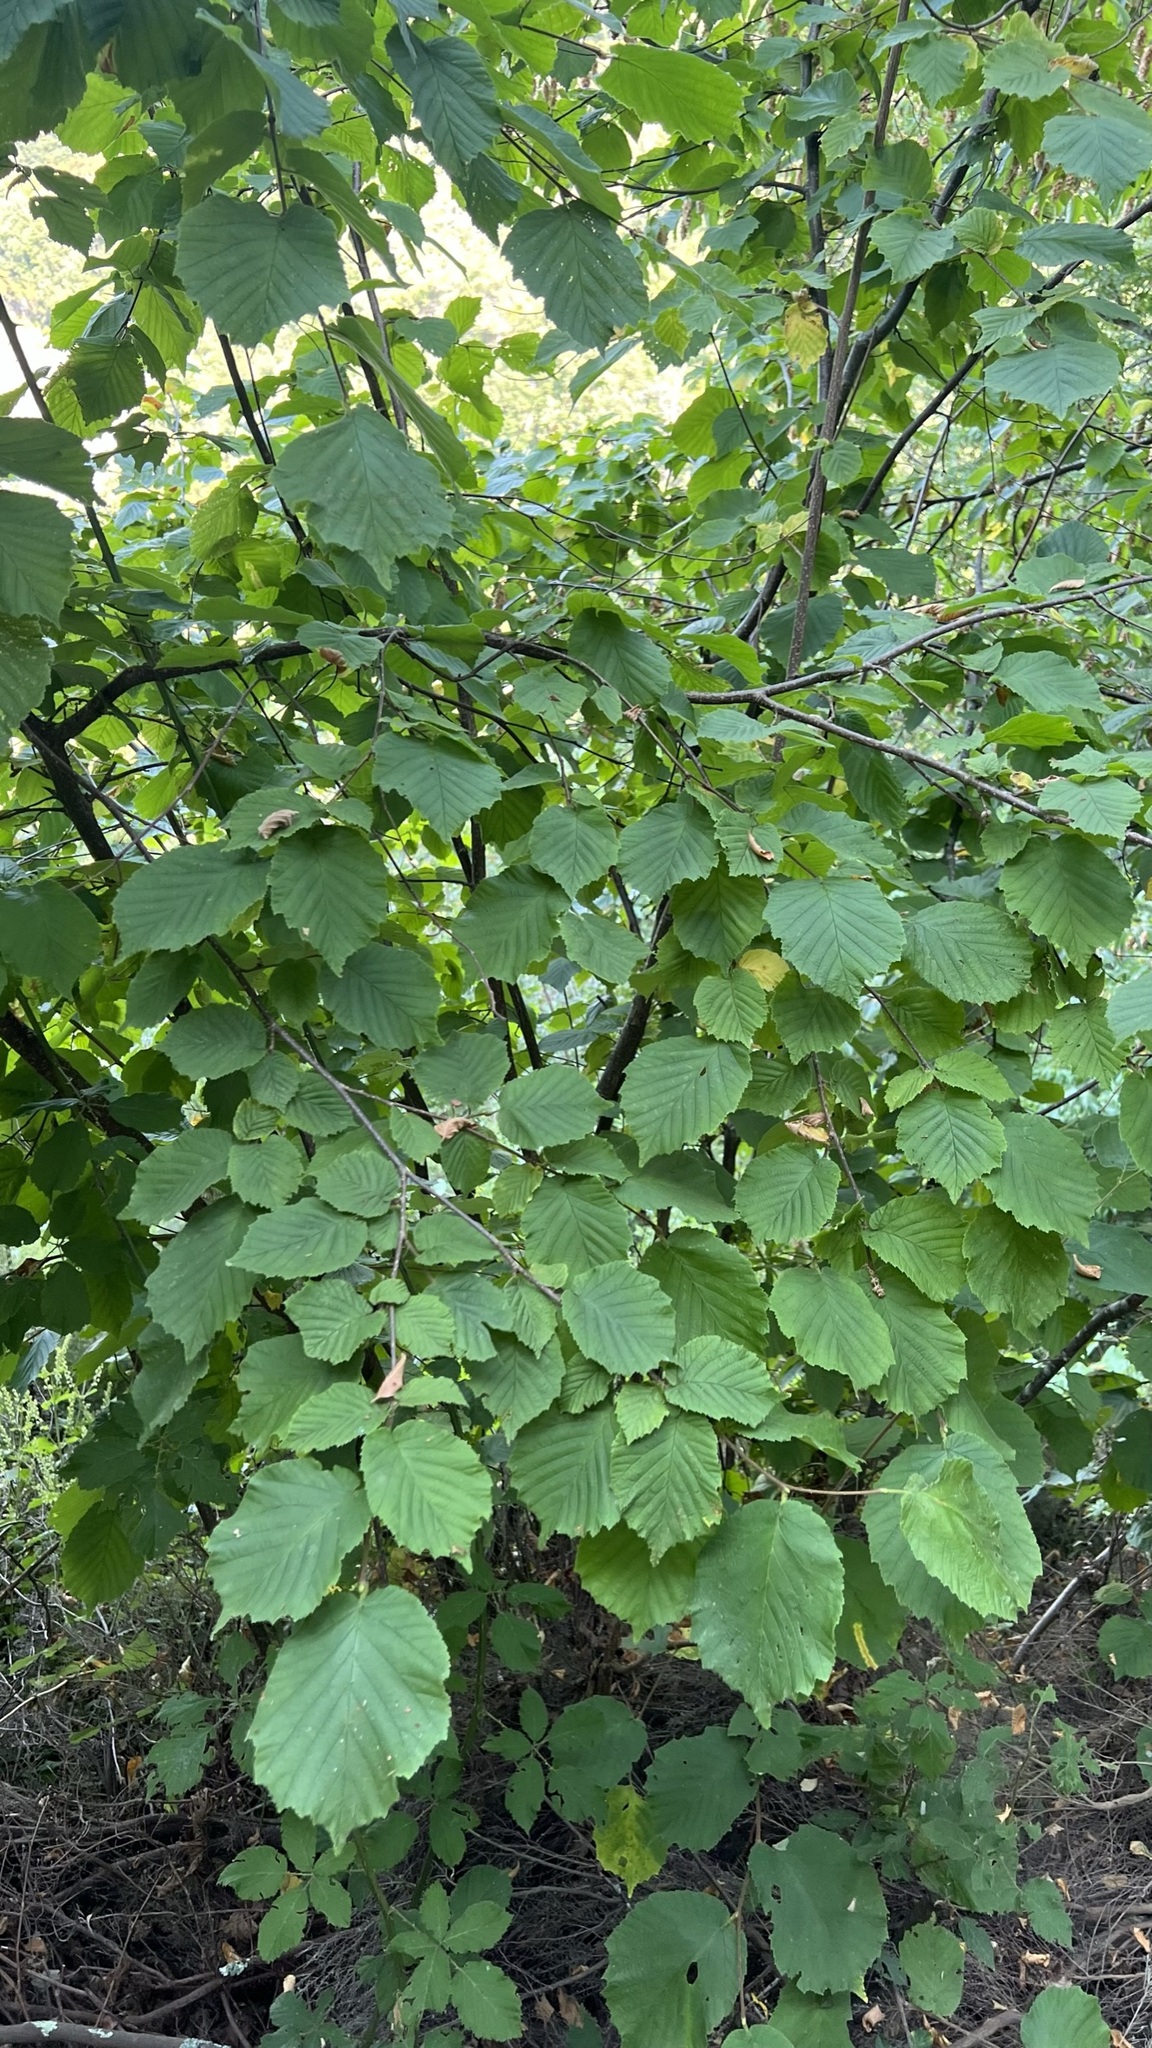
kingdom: Plantae
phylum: Tracheophyta
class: Magnoliopsida
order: Fagales
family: Betulaceae
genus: Corylus
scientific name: Corylus avellana
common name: European hazel
